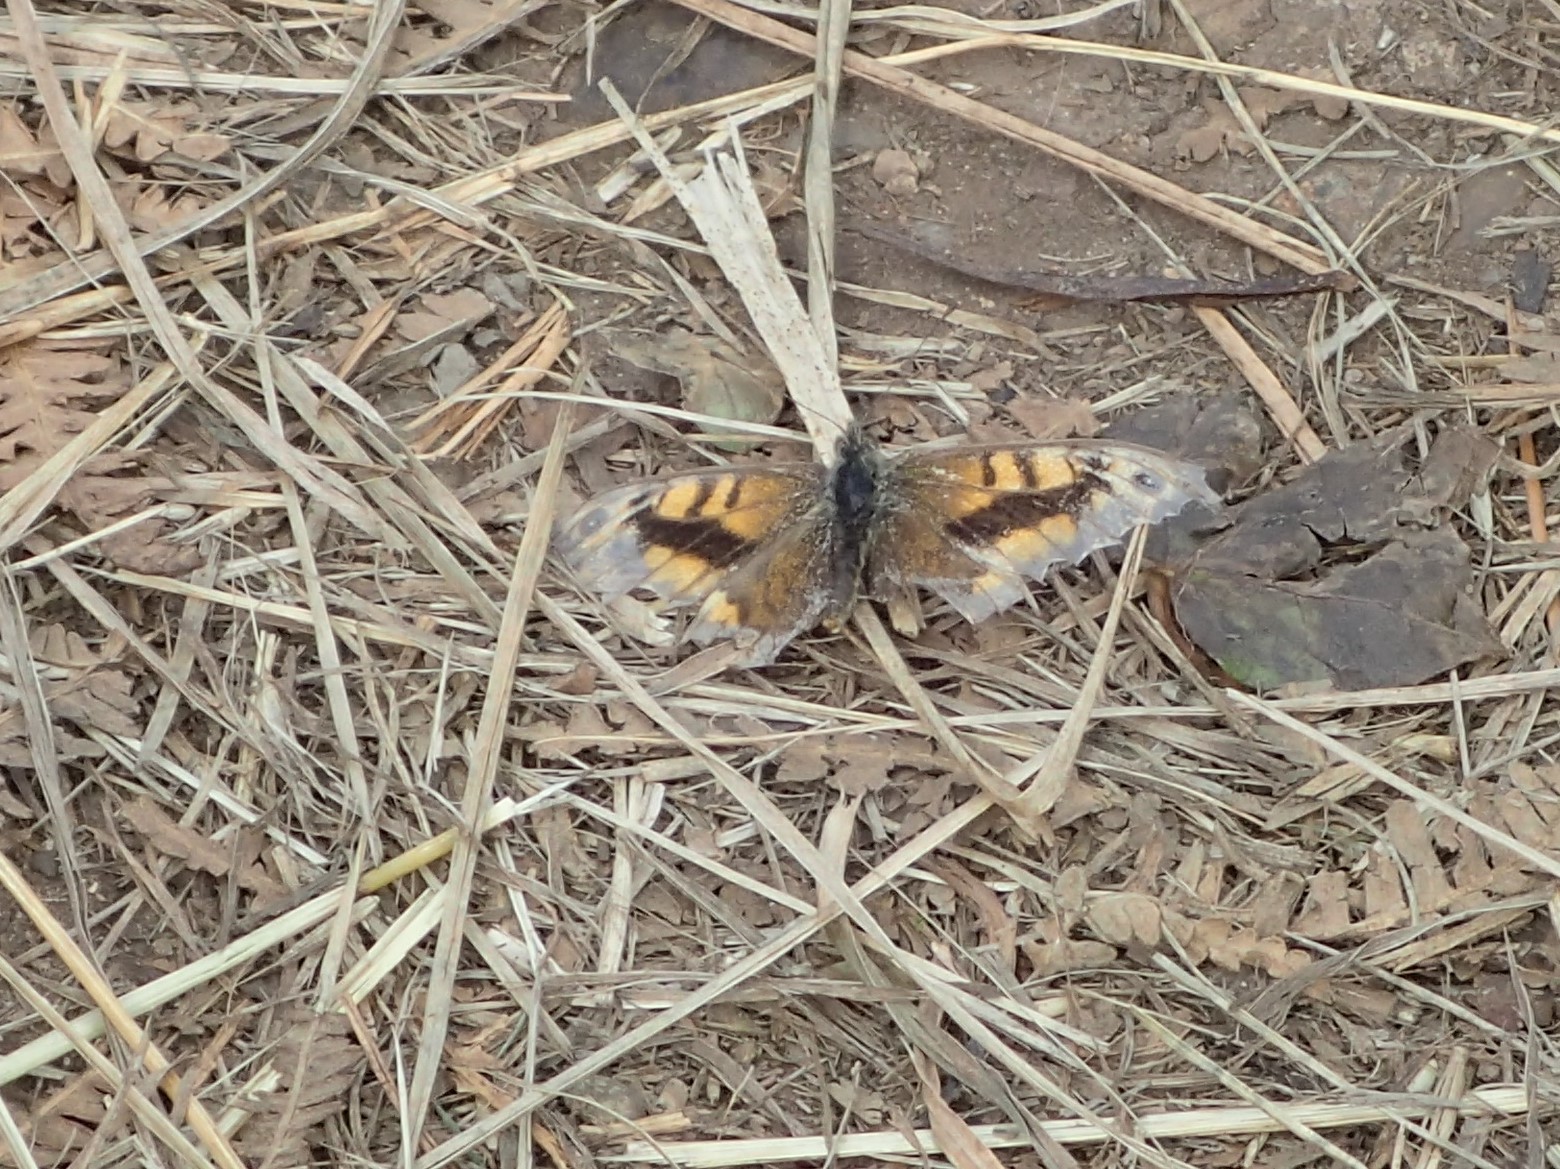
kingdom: Animalia
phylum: Arthropoda
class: Insecta
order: Lepidoptera
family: Nymphalidae
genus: Pararge
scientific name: Pararge Lasiommata megera
